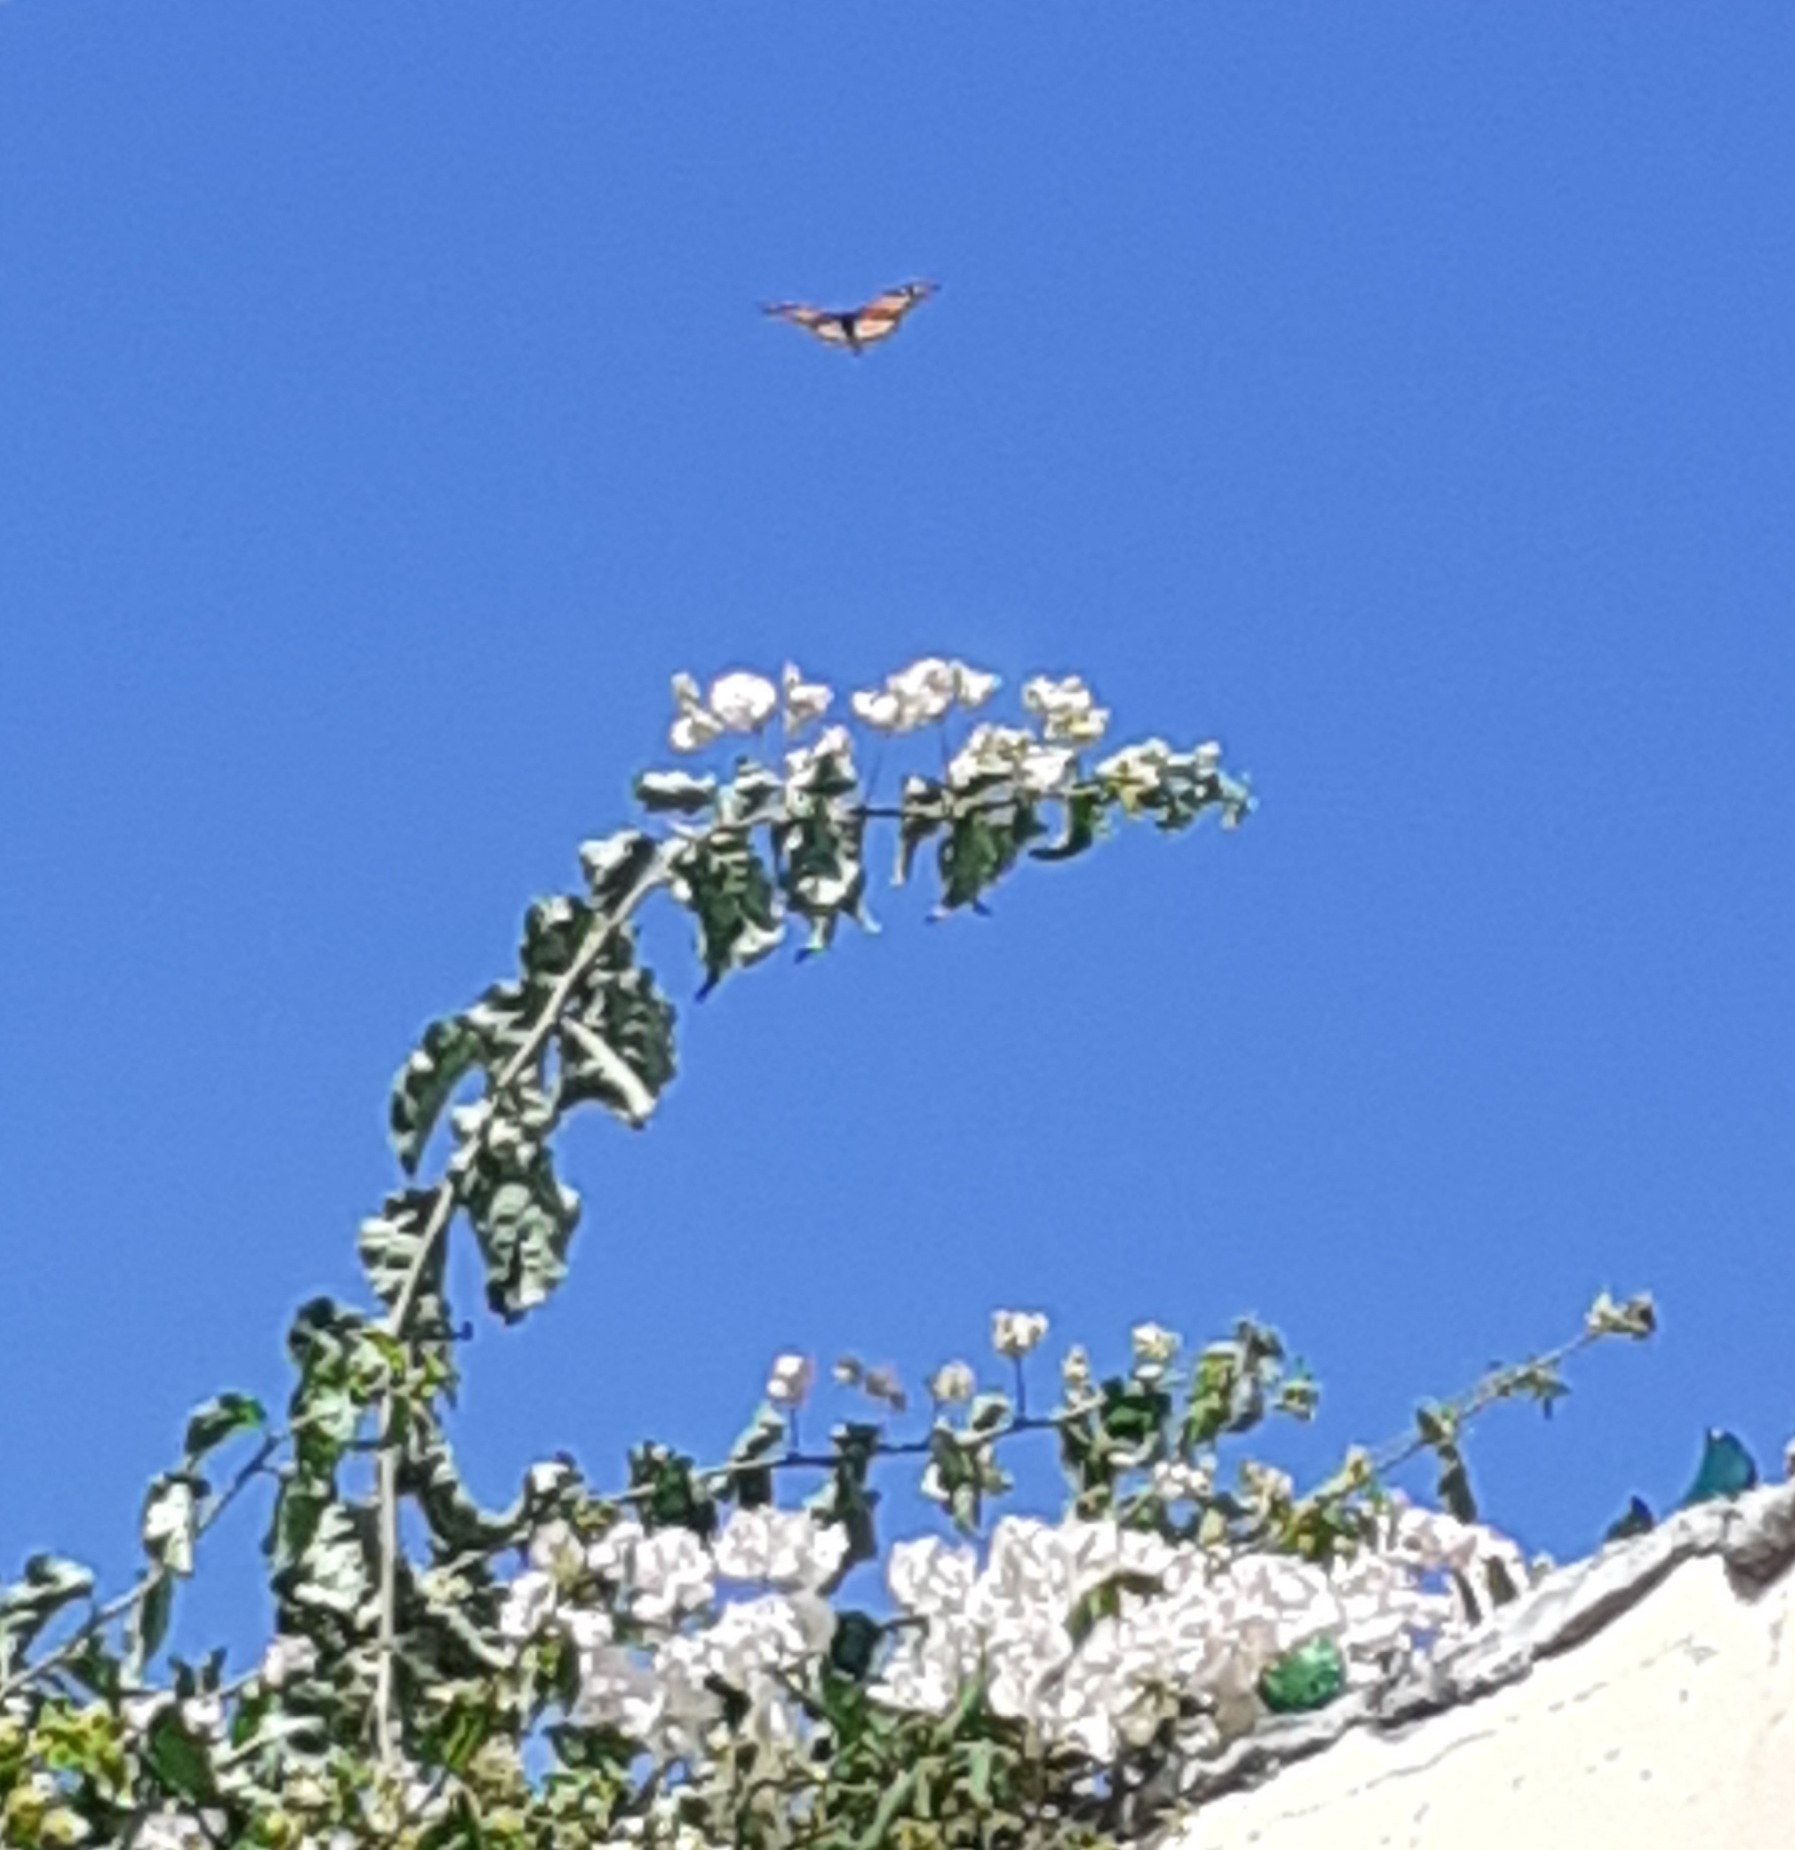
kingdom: Animalia
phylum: Arthropoda
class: Insecta
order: Lepidoptera
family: Nymphalidae
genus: Danaus
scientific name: Danaus plexippus
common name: Monarch
